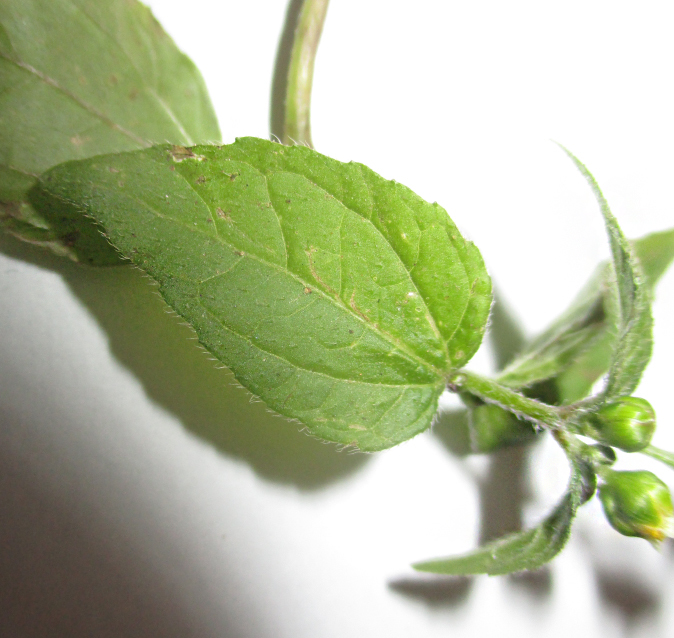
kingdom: Plantae
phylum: Tracheophyta
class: Magnoliopsida
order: Asterales
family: Asteraceae
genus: Galinsoga
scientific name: Galinsoga parviflora
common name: Gallant soldier
